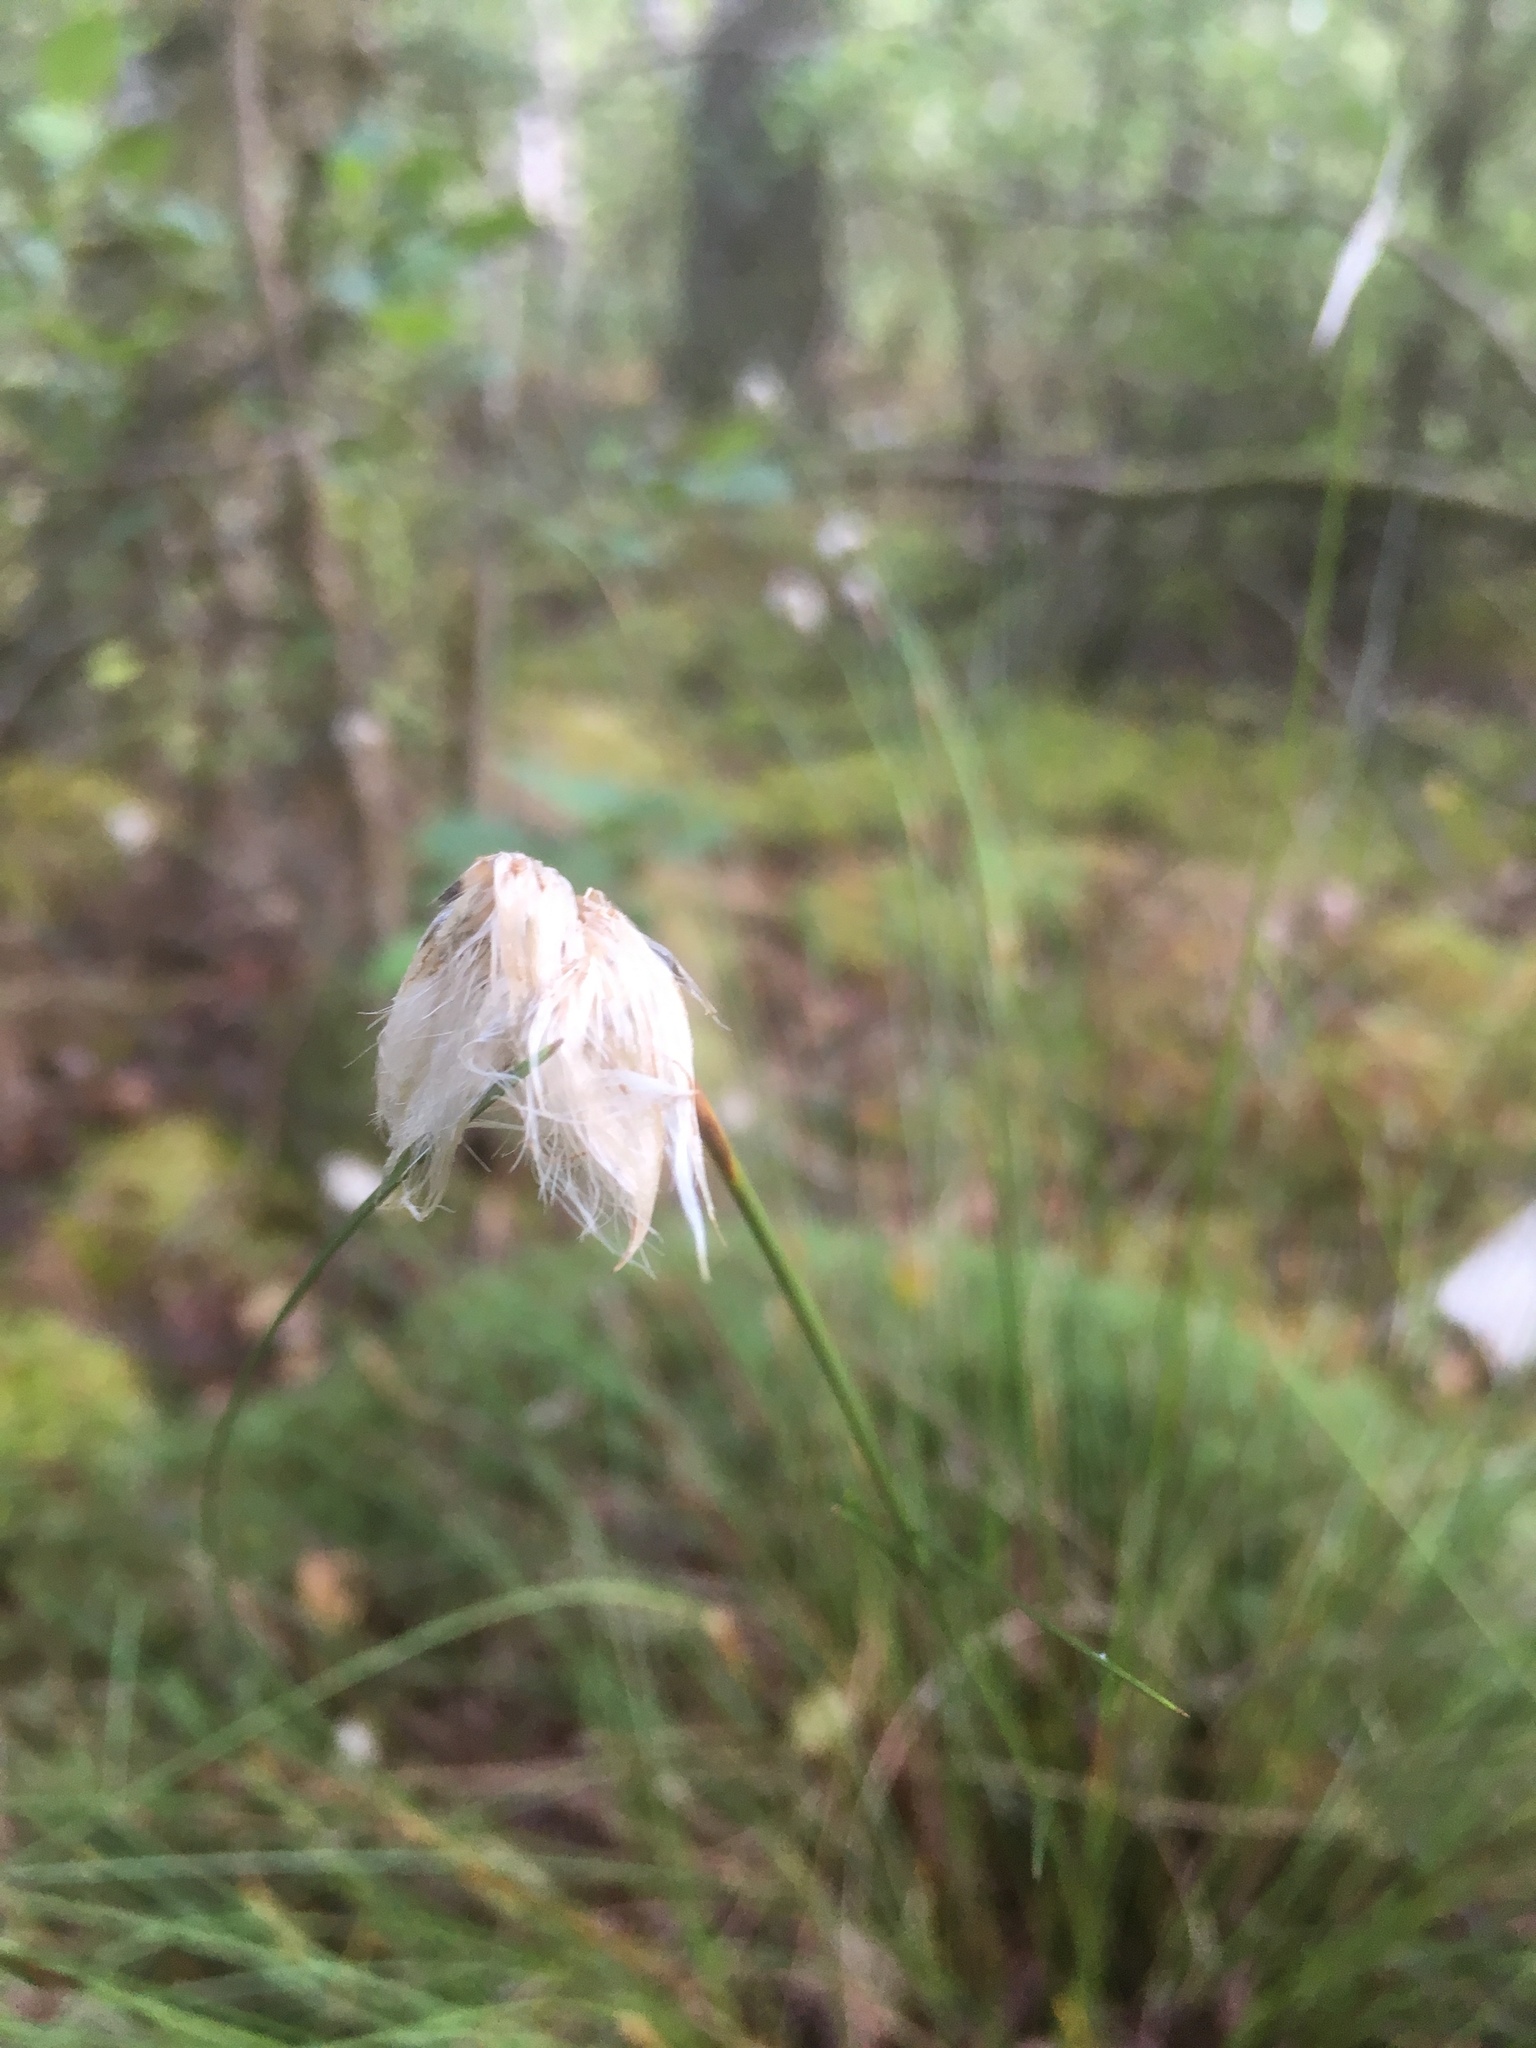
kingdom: Plantae
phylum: Tracheophyta
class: Liliopsida
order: Poales
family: Cyperaceae
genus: Eriophorum
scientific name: Eriophorum vaginatum
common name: Hare's-tail cottongrass
